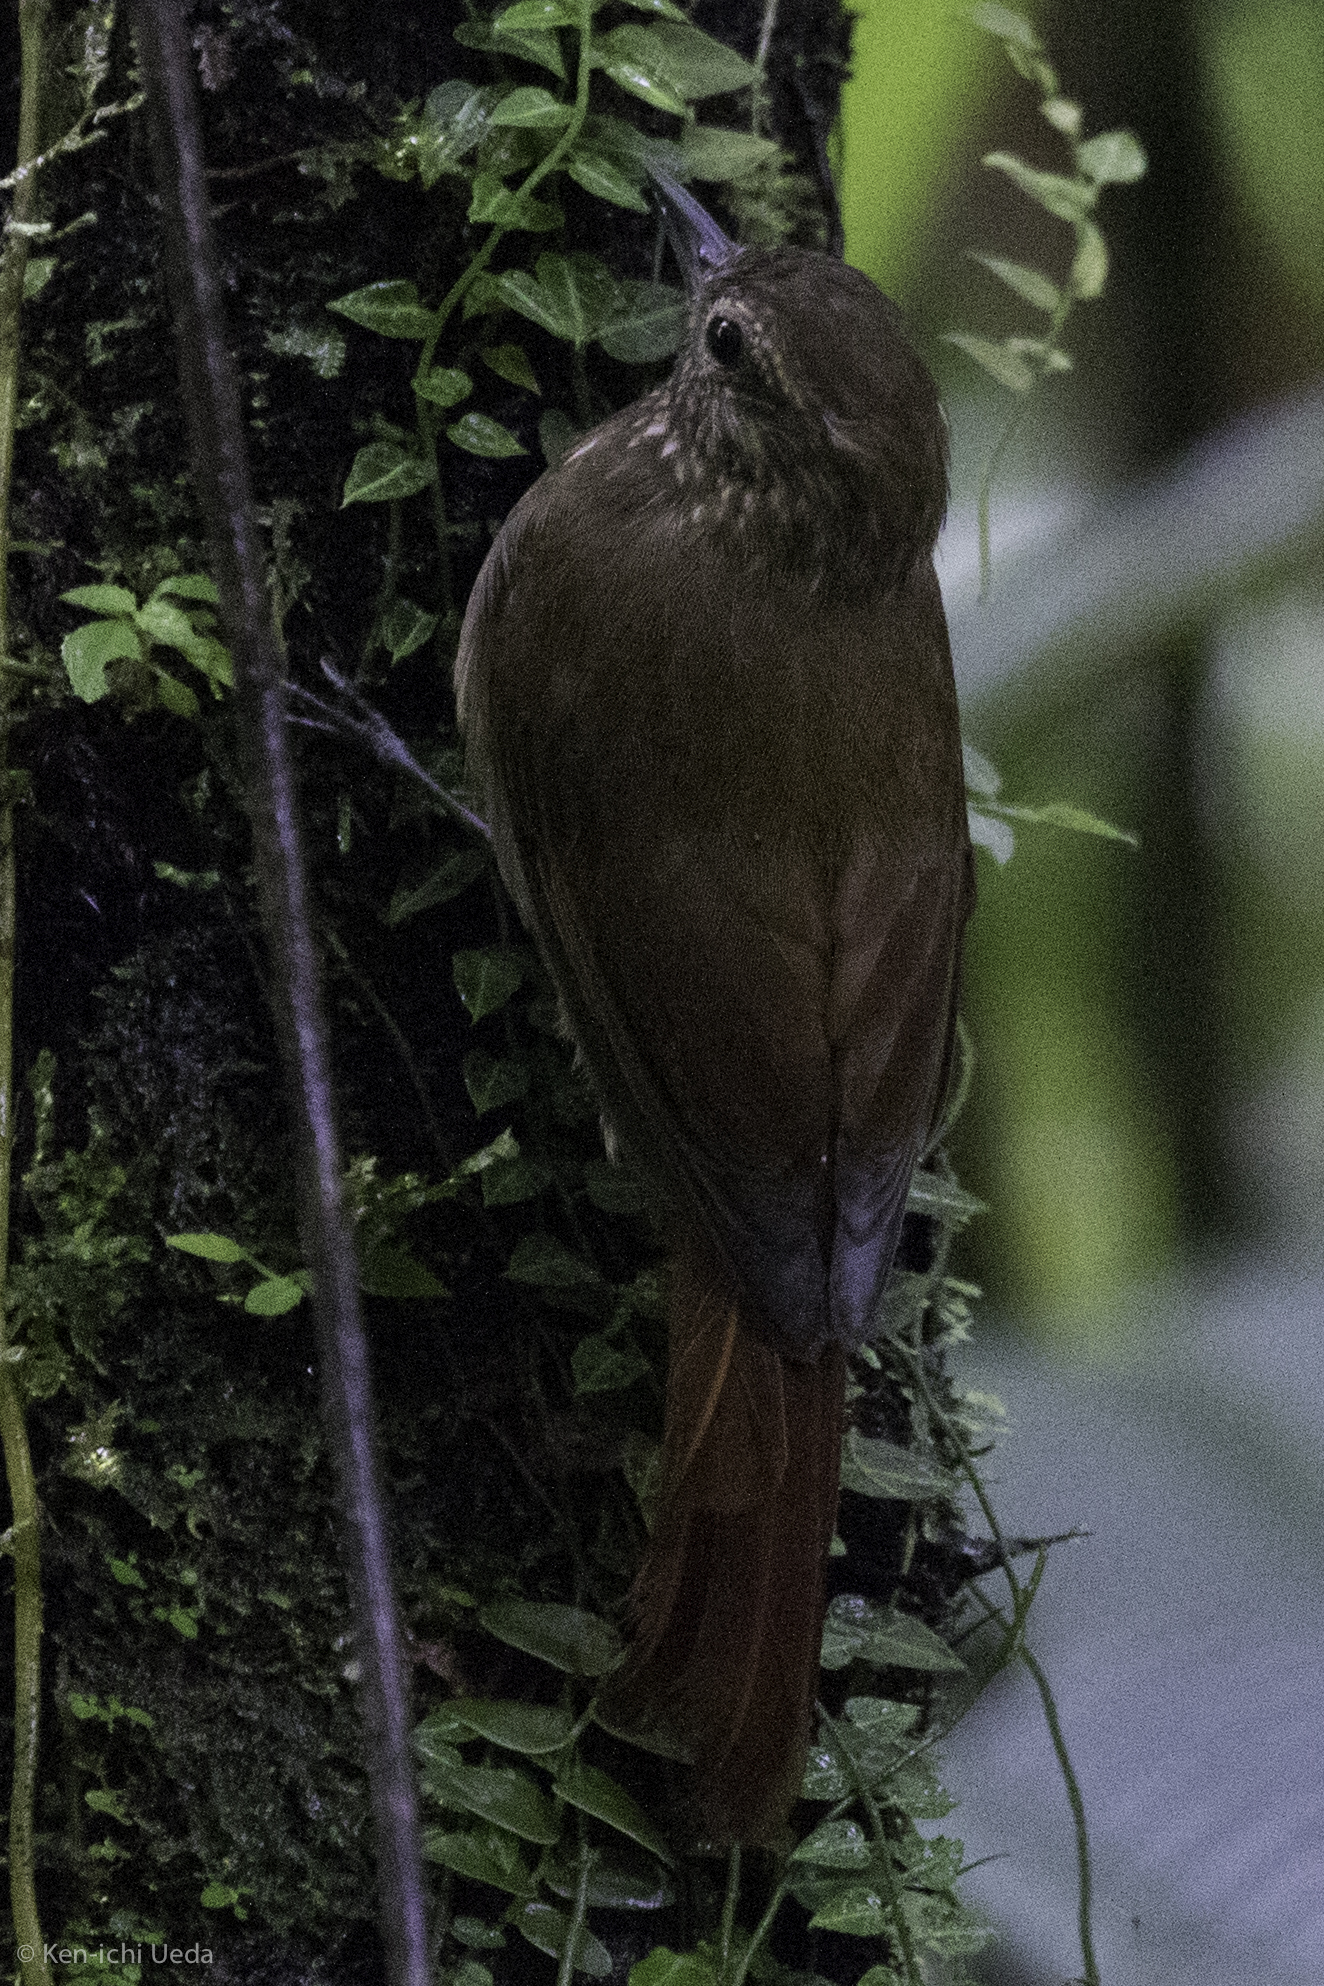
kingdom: Animalia
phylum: Chordata
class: Aves
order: Passeriformes
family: Furnariidae
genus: Glyphorynchus
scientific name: Glyphorynchus spirurus
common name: Wedge-billed woodcreeper
